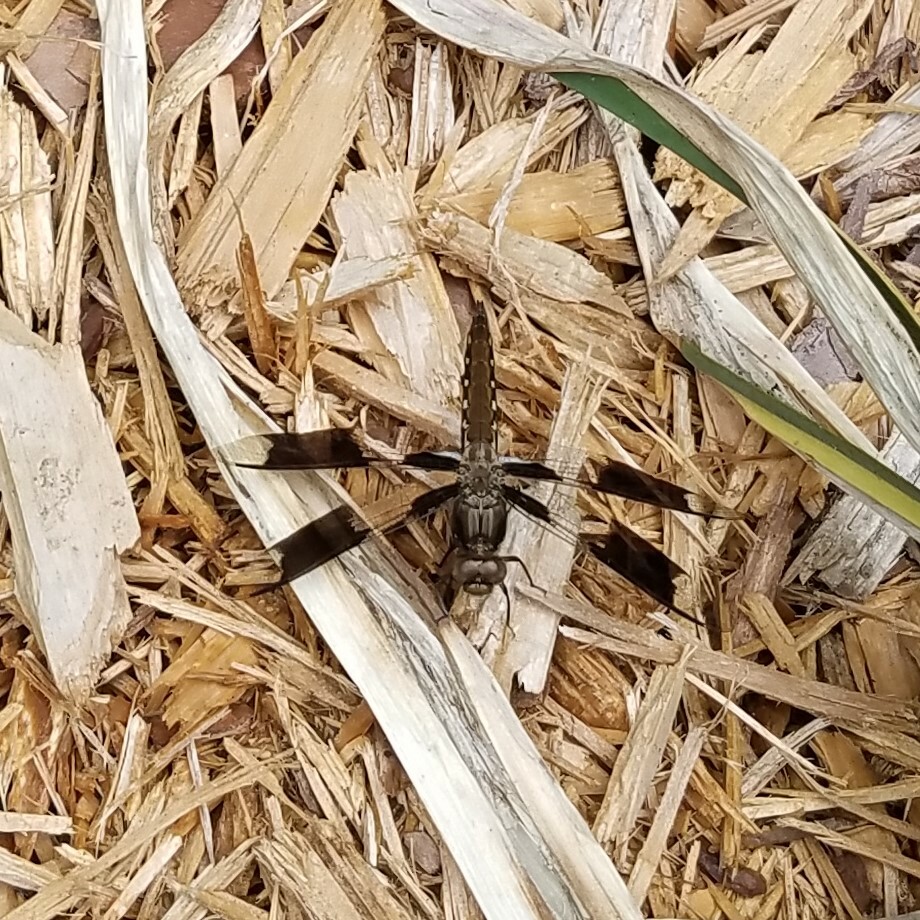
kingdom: Animalia
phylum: Arthropoda
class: Insecta
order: Odonata
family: Libellulidae
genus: Plathemis
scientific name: Plathemis lydia
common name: Common whitetail
